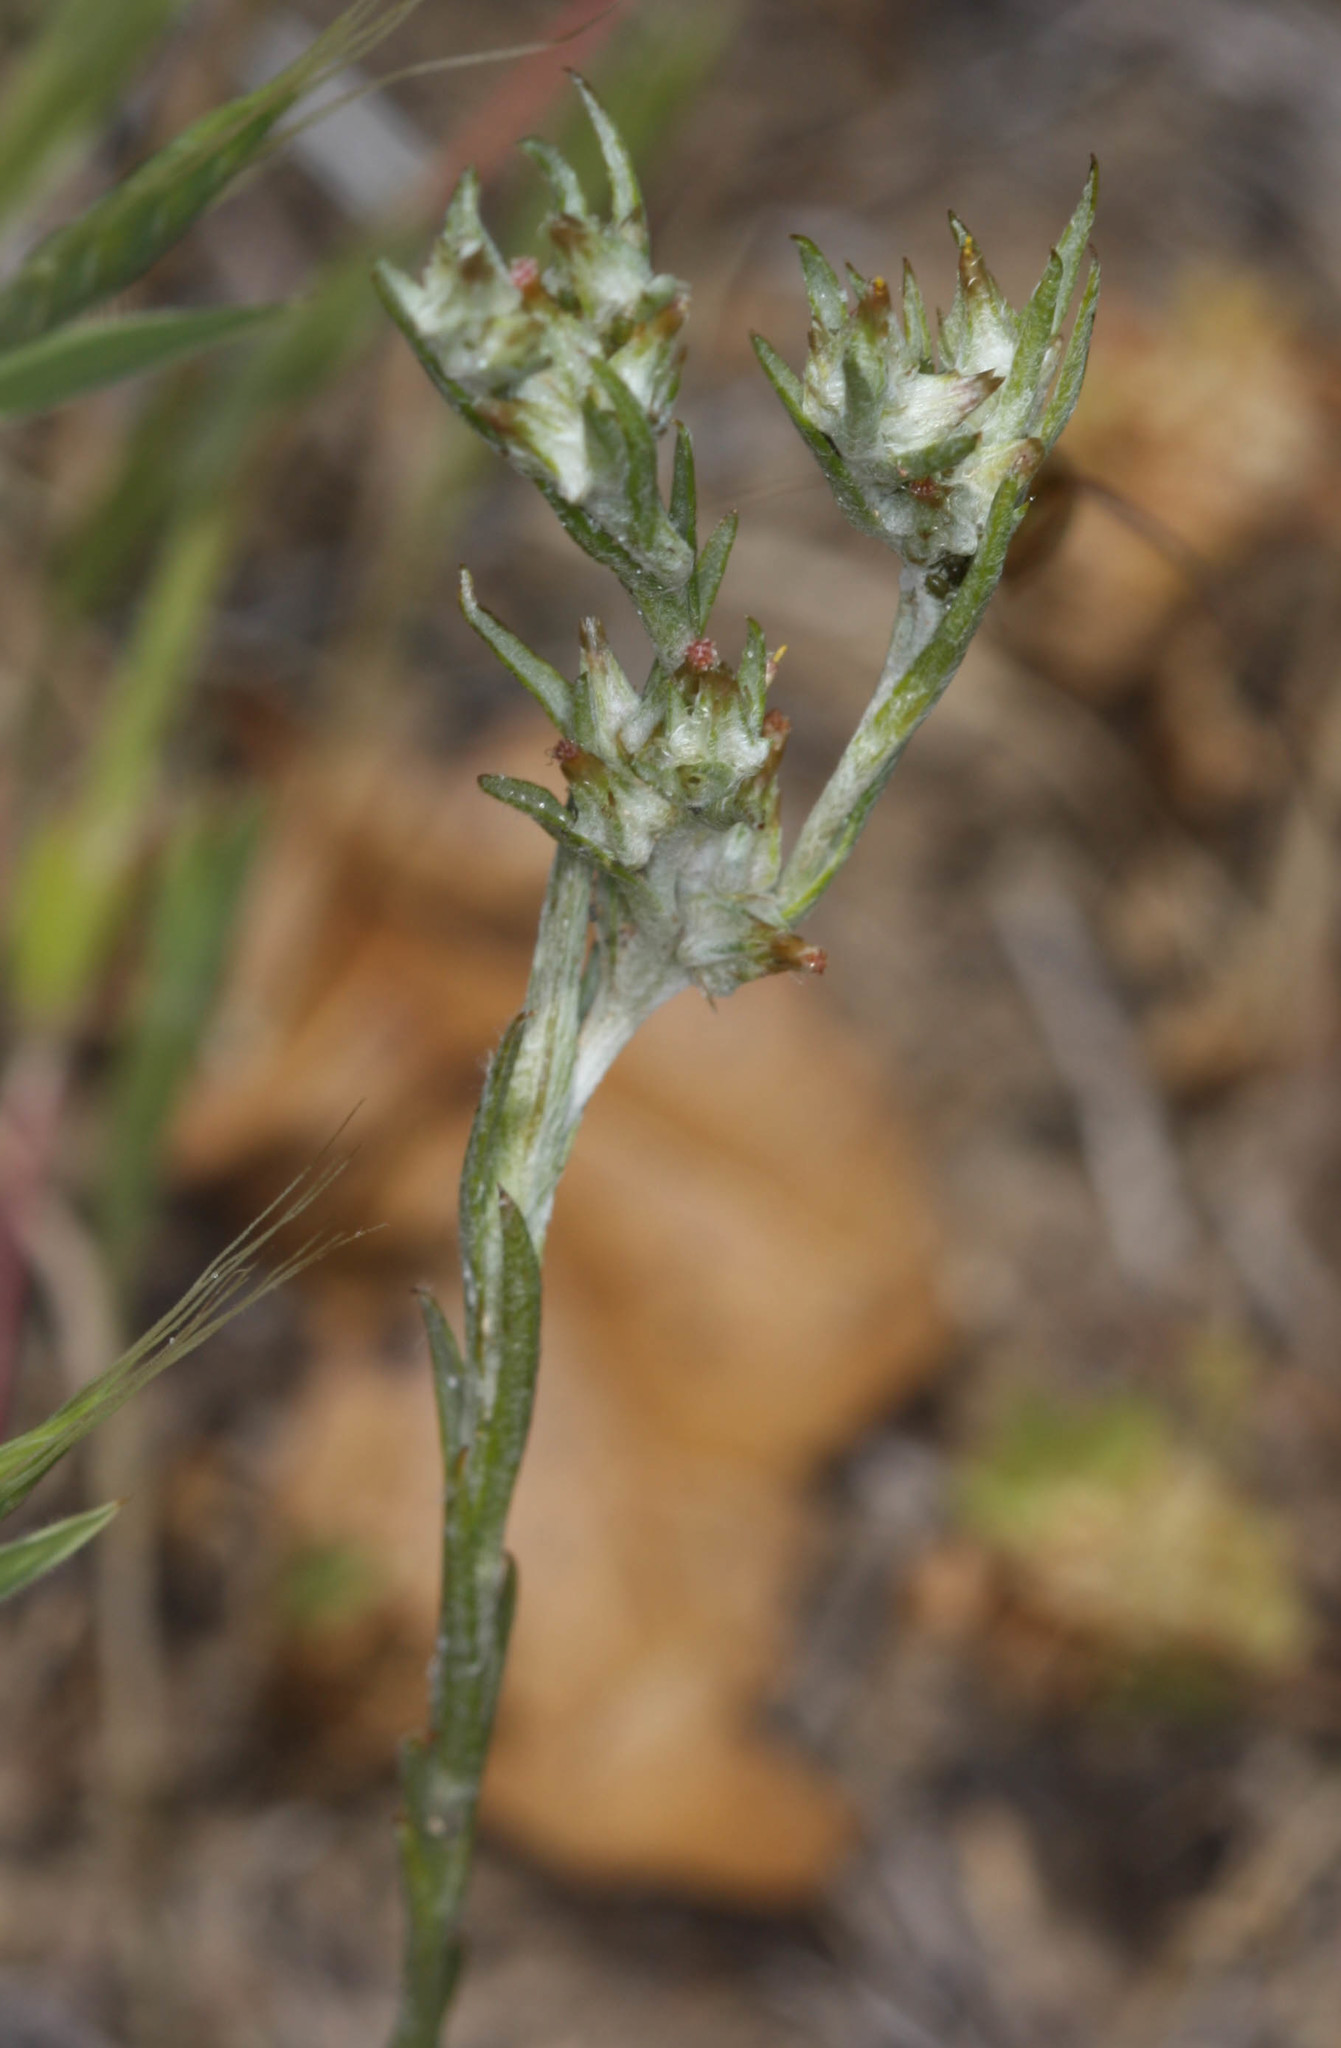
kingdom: Plantae
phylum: Tracheophyta
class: Magnoliopsida
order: Asterales
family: Asteraceae
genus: Logfia
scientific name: Logfia gallica
